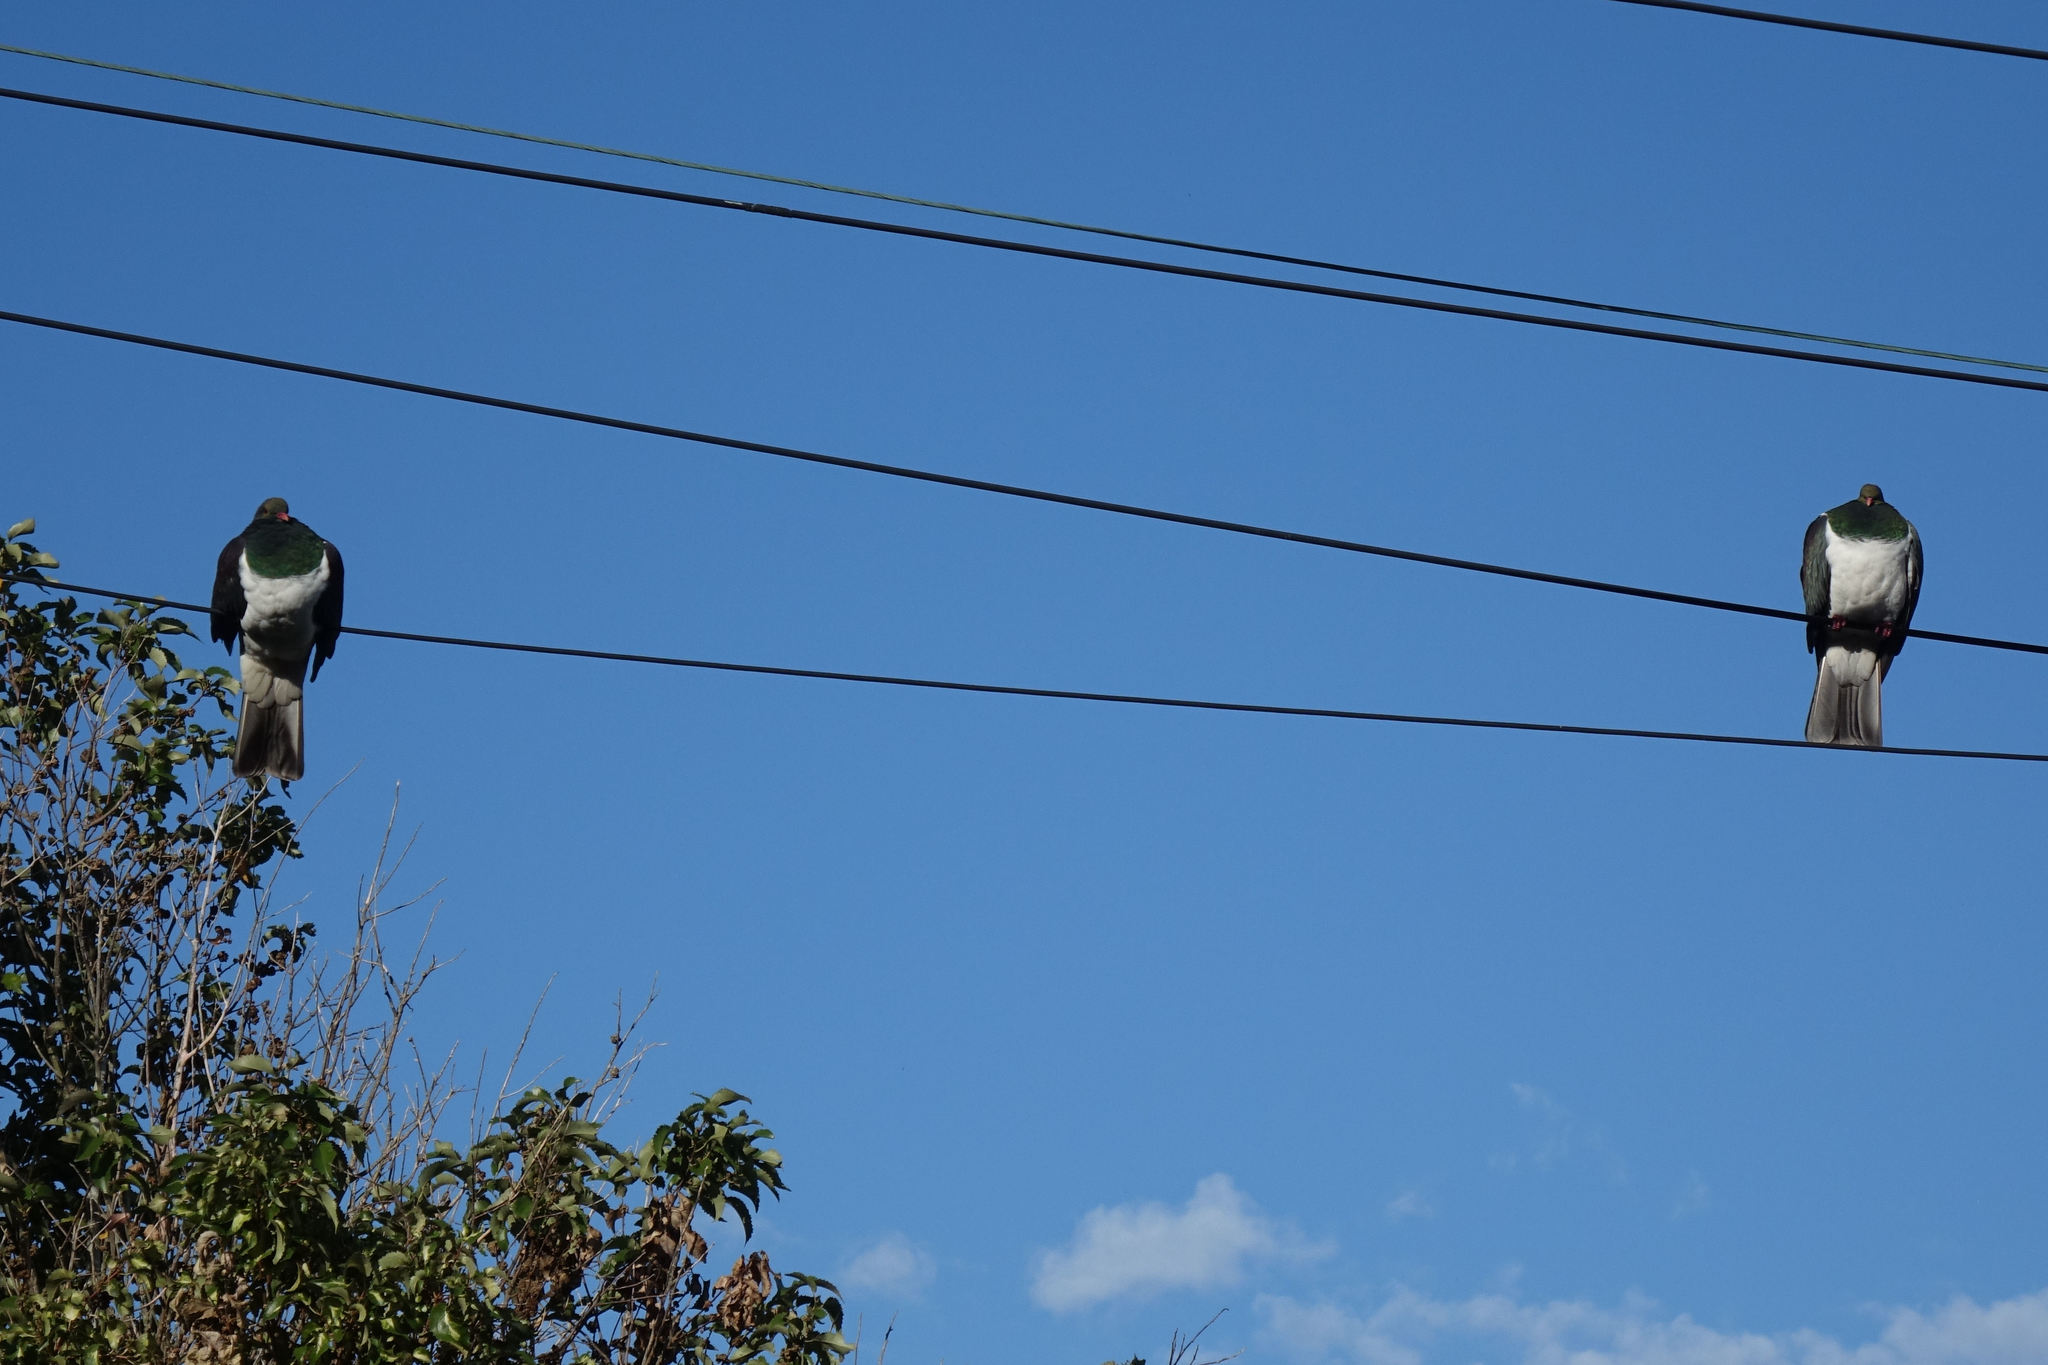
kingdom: Animalia
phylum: Chordata
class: Aves
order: Columbiformes
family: Columbidae
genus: Hemiphaga
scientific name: Hemiphaga novaeseelandiae
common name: New zealand pigeon
